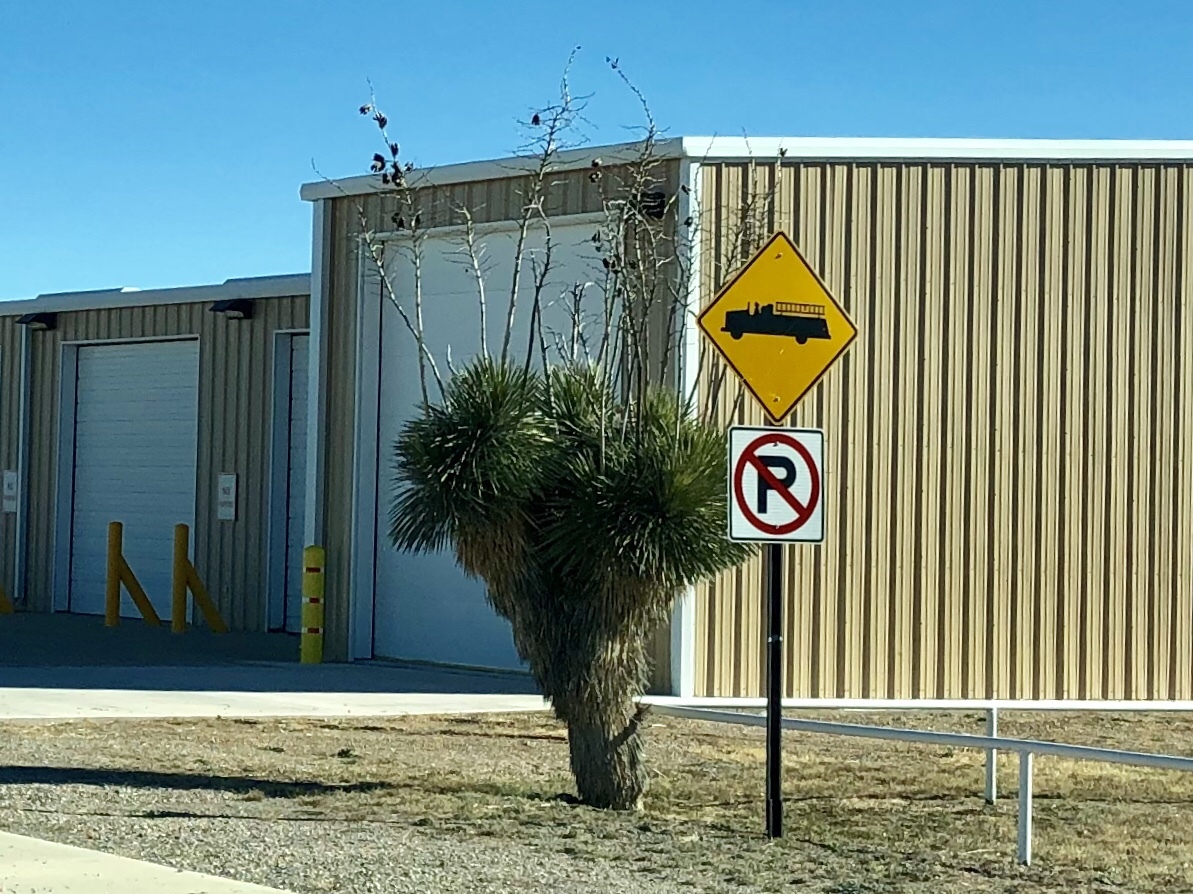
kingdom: Plantae
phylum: Tracheophyta
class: Liliopsida
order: Asparagales
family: Asparagaceae
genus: Yucca
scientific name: Yucca elata
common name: Palmella
